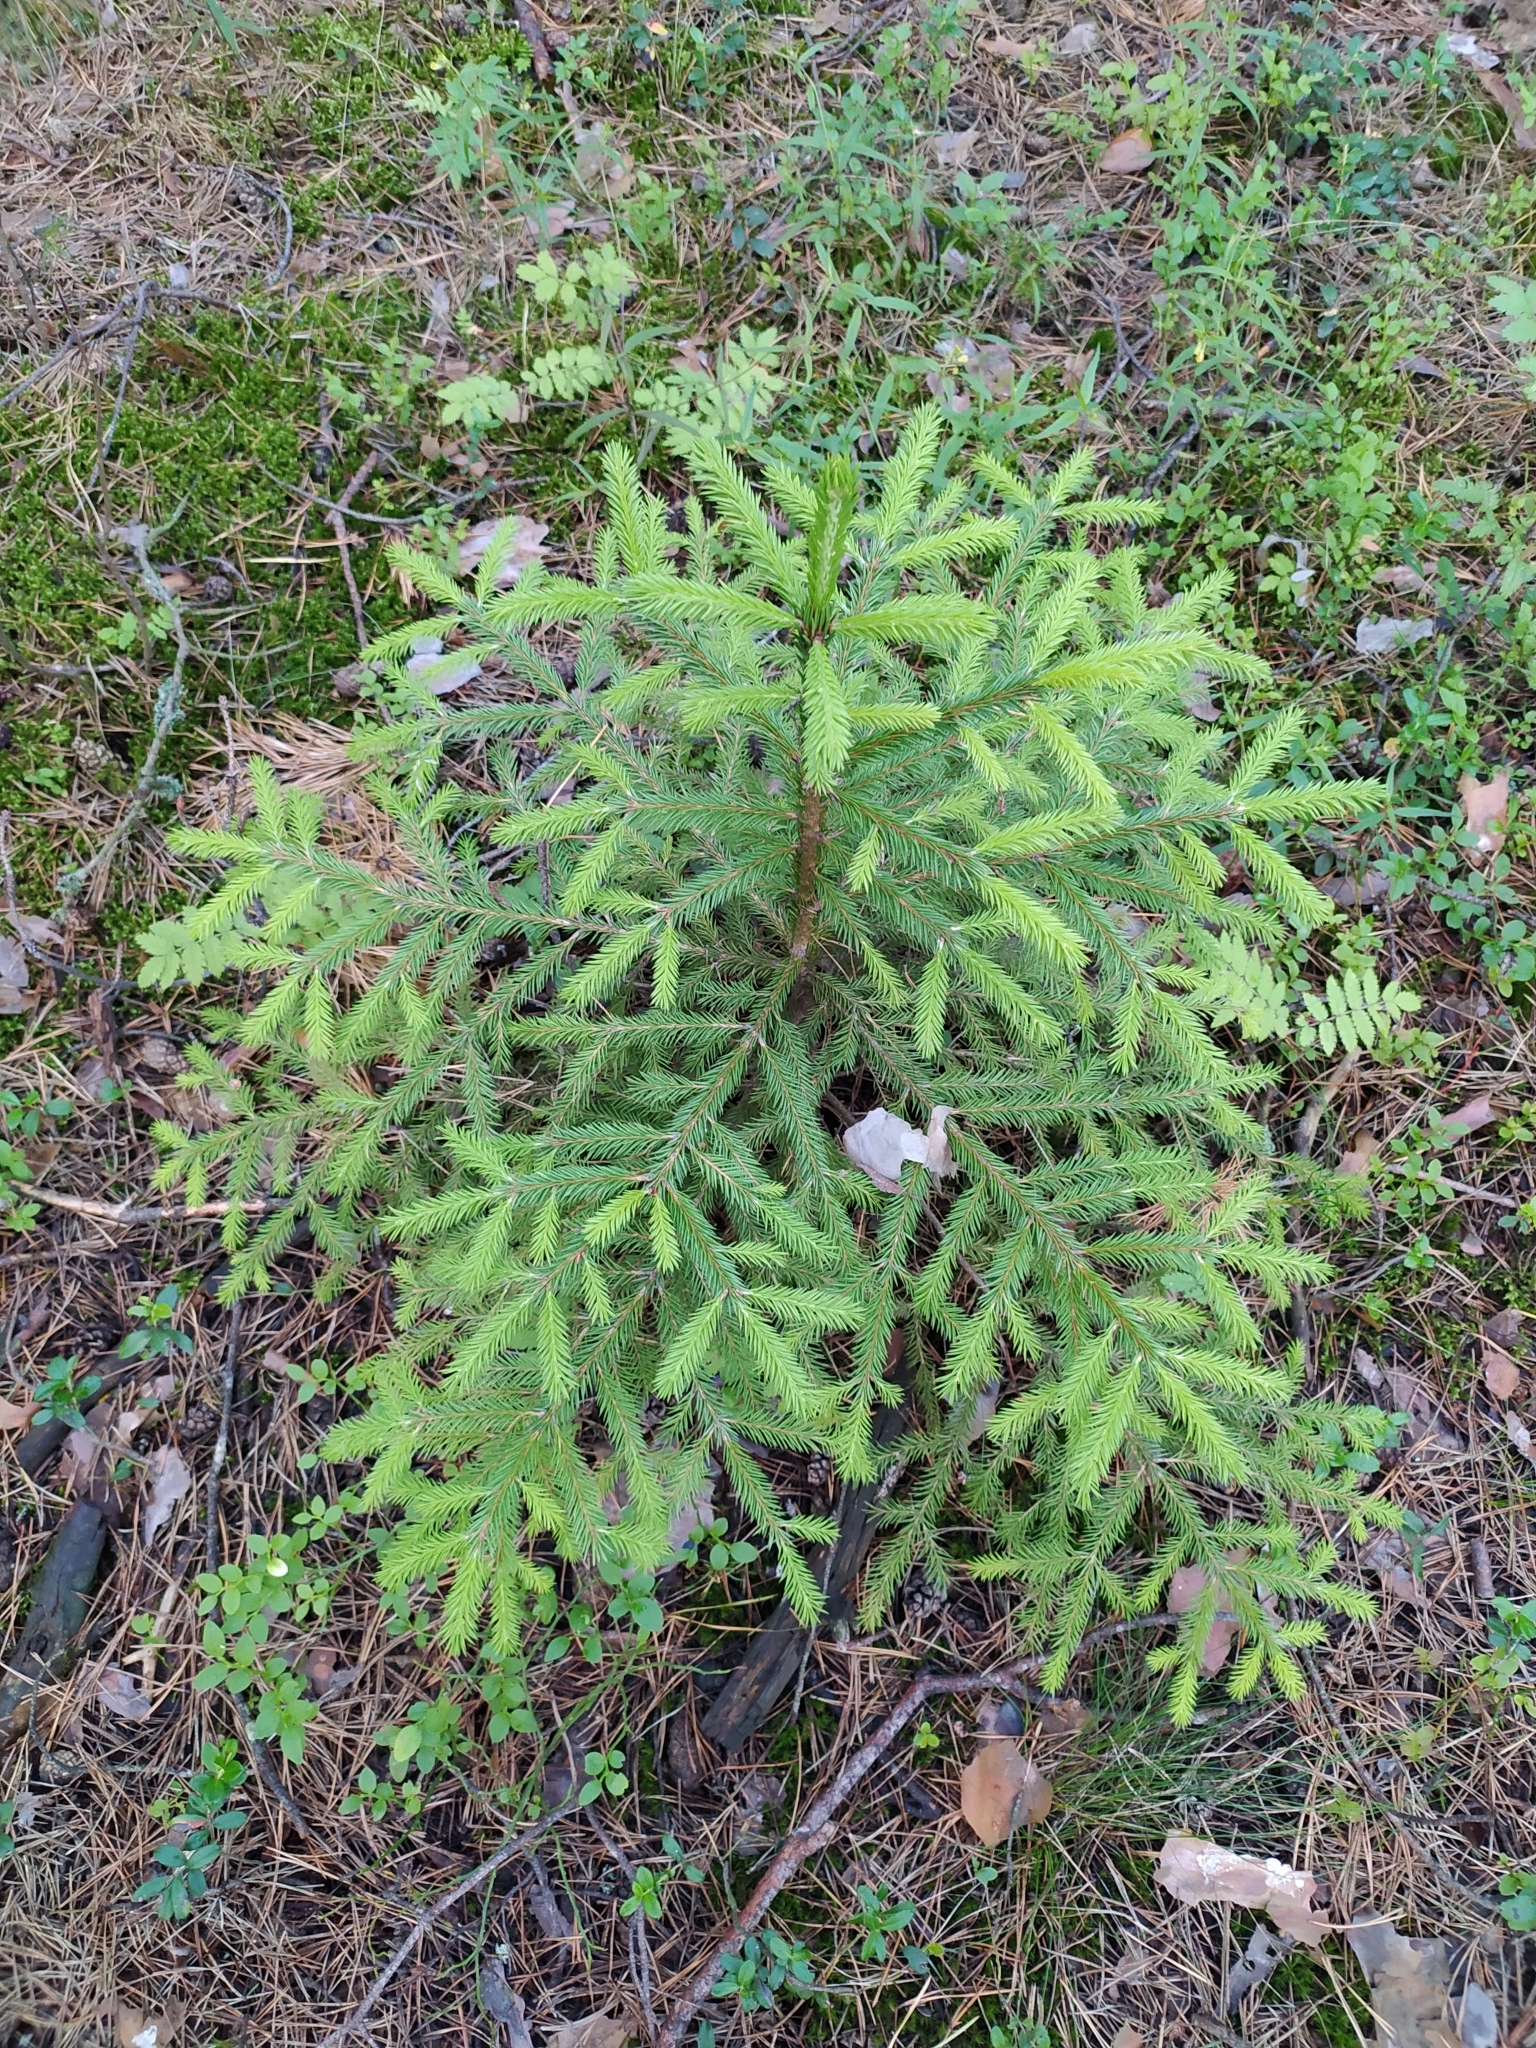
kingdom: Plantae
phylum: Tracheophyta
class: Pinopsida
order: Pinales
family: Pinaceae
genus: Picea
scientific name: Picea abies
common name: Norway spruce
